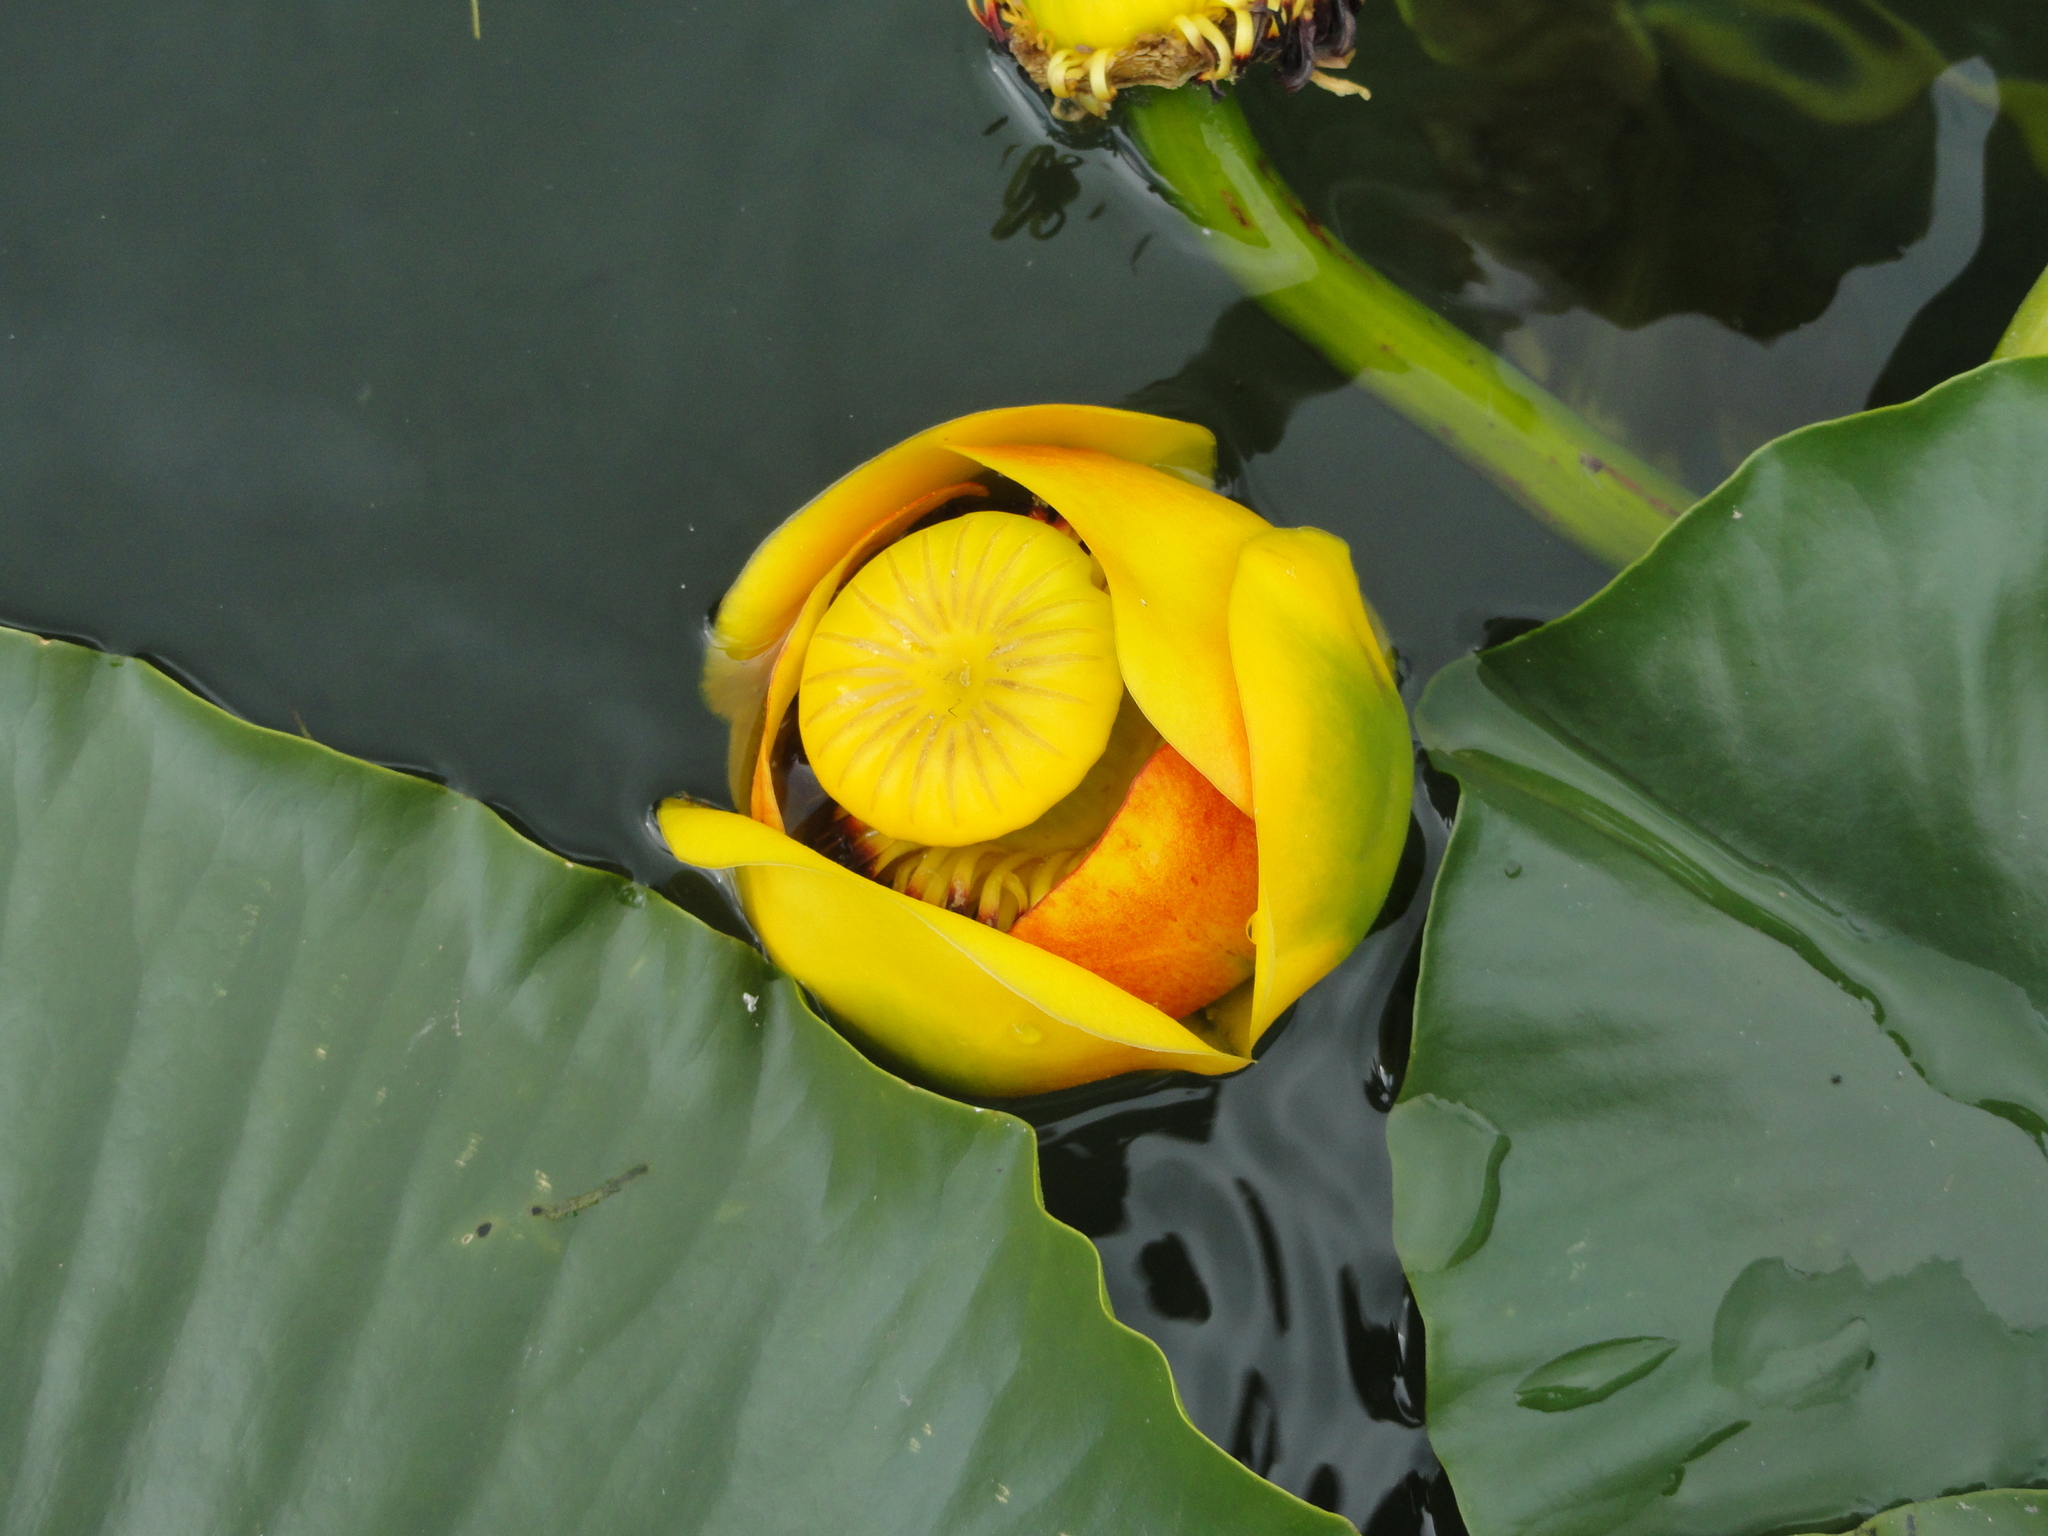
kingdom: Plantae
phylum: Tracheophyta
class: Magnoliopsida
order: Nymphaeales
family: Nymphaeaceae
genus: Nuphar
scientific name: Nuphar polysepala
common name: Rocky mountain cow-lily
